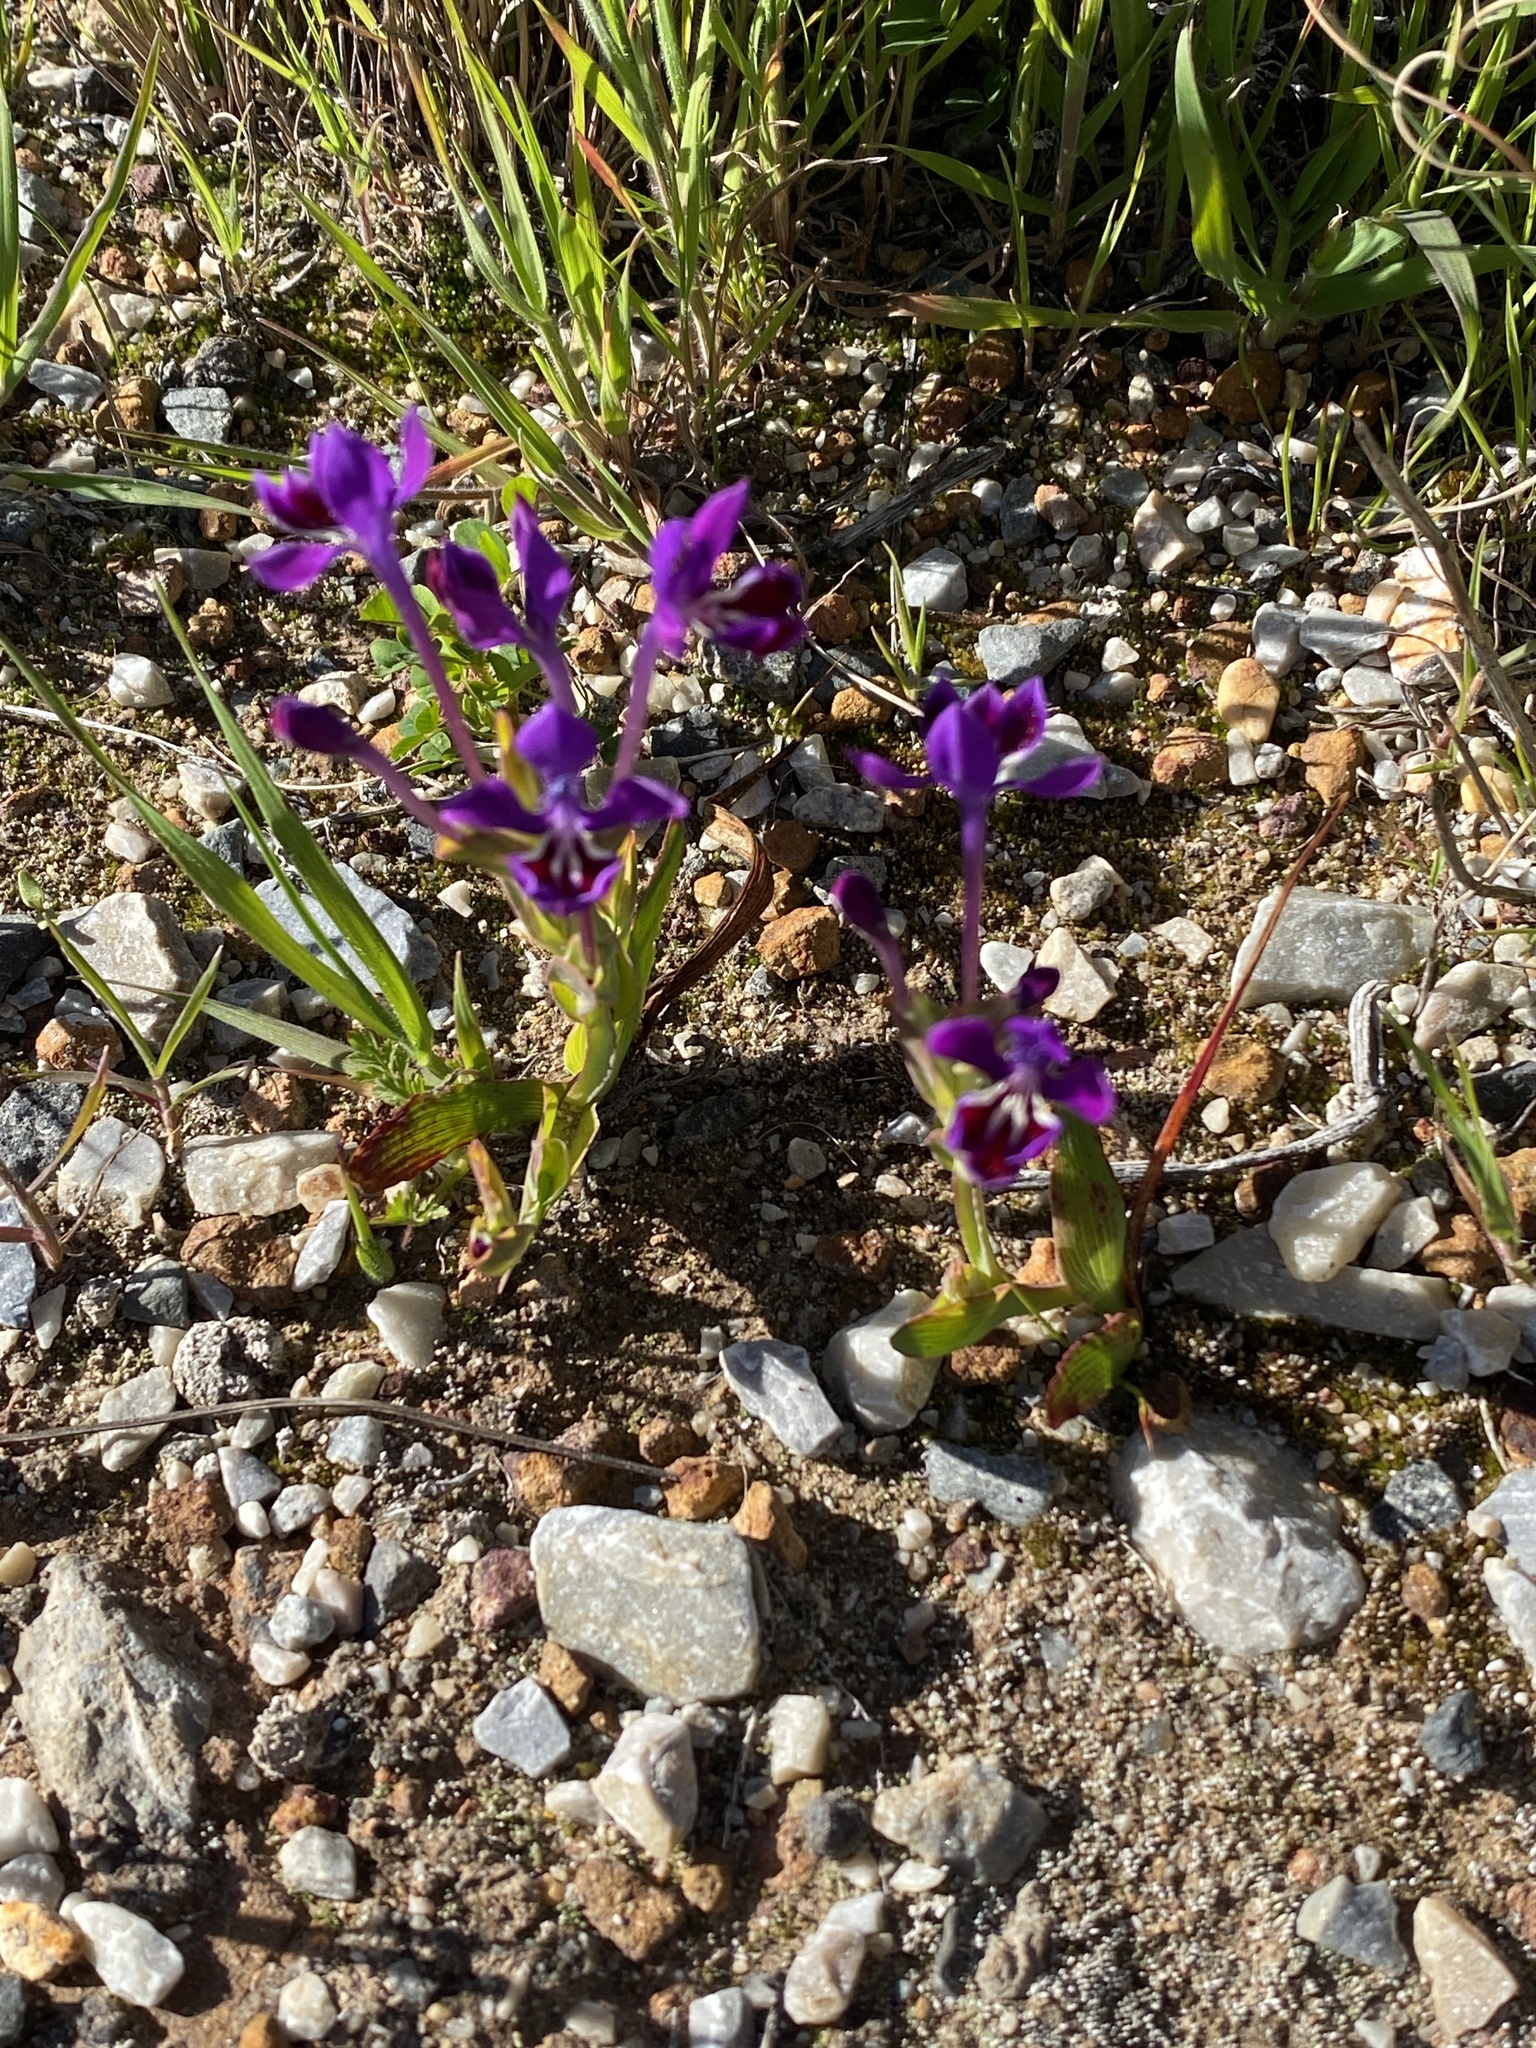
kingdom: Plantae
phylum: Tracheophyta
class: Liliopsida
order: Asparagales
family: Iridaceae
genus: Lapeirousia
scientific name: Lapeirousia jacquinii
